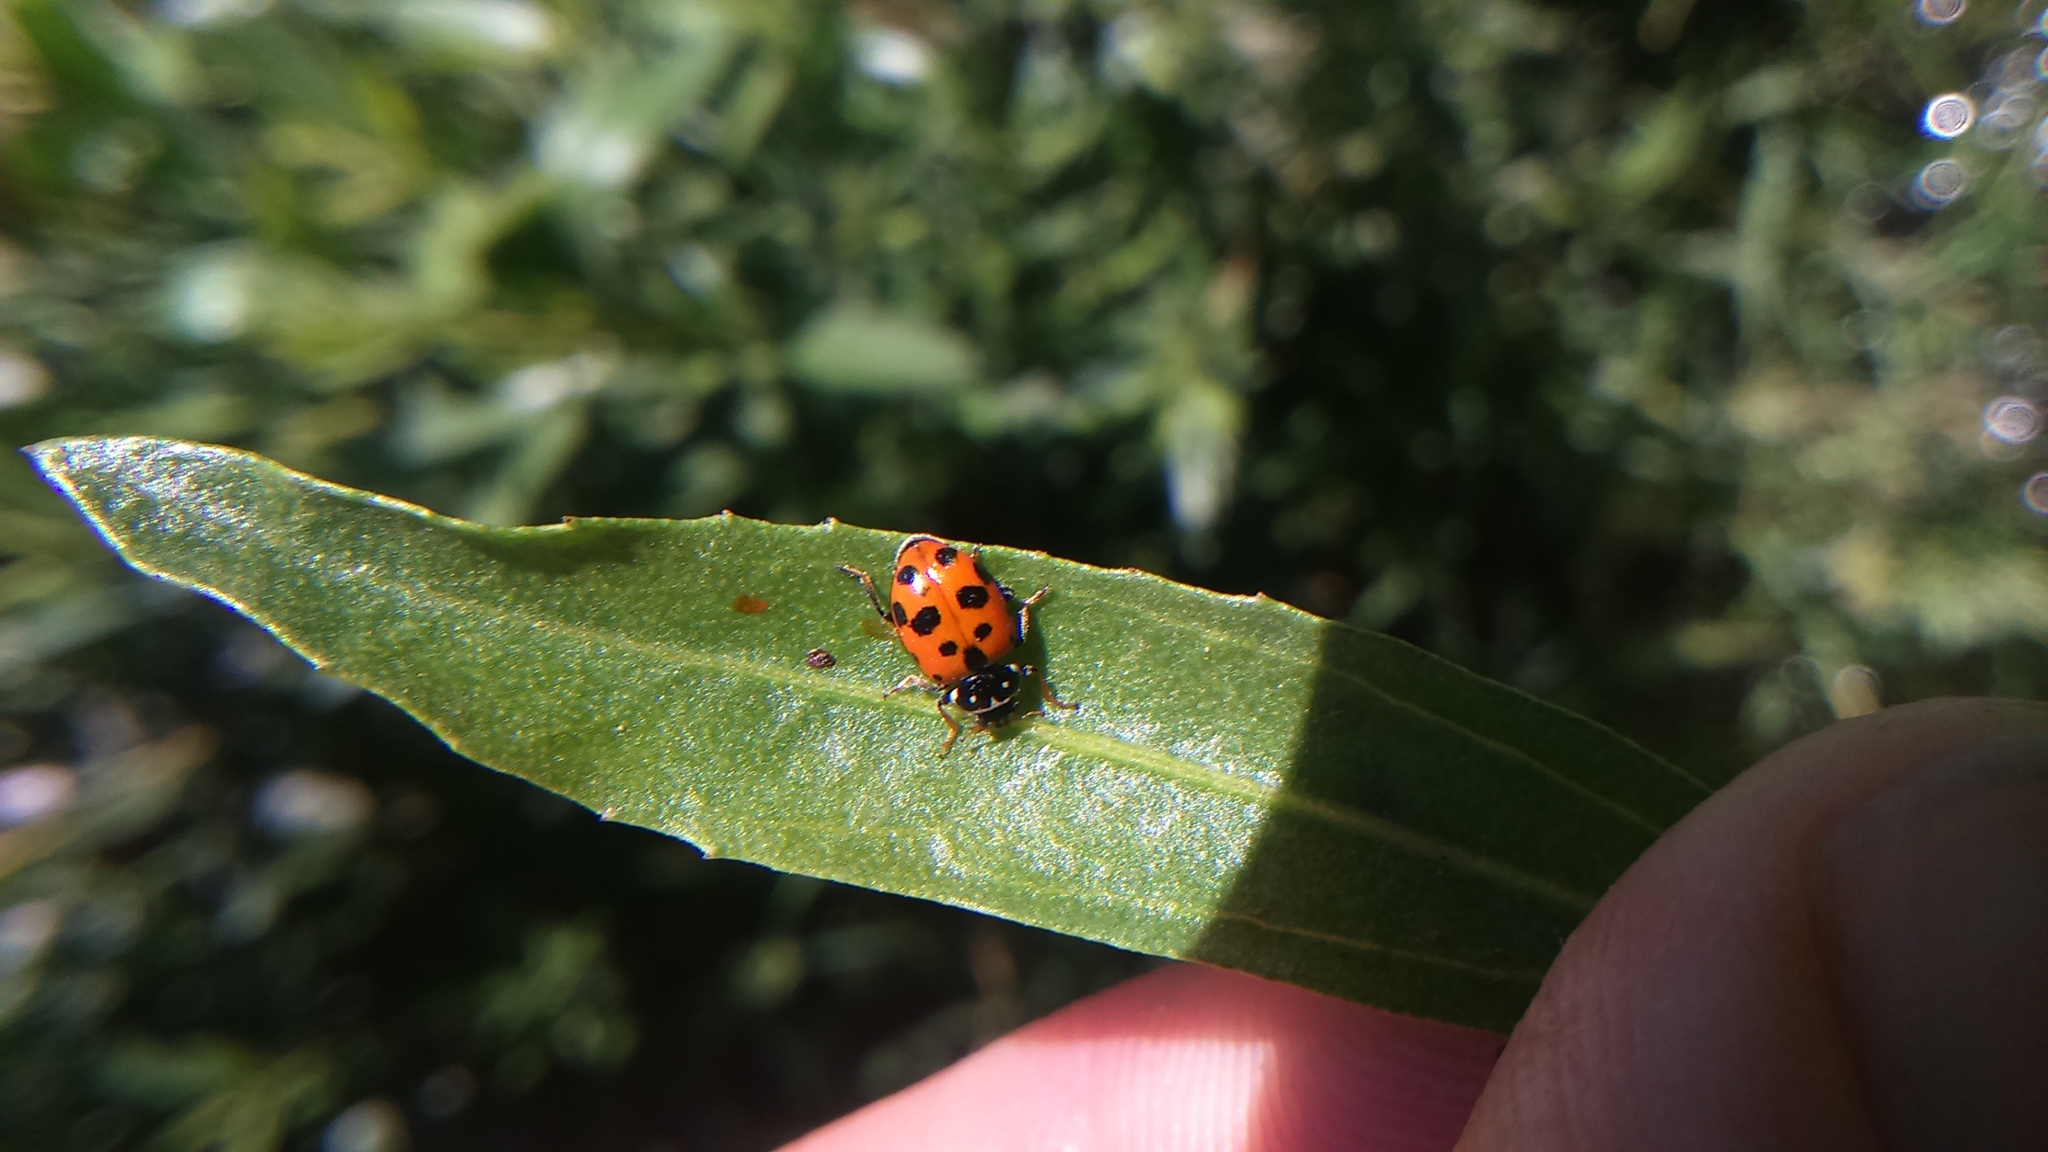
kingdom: Animalia
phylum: Arthropoda
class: Insecta
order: Coleoptera
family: Coccinellidae
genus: Hippodamia
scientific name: Hippodamia convergens
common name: Convergent lady beetle
